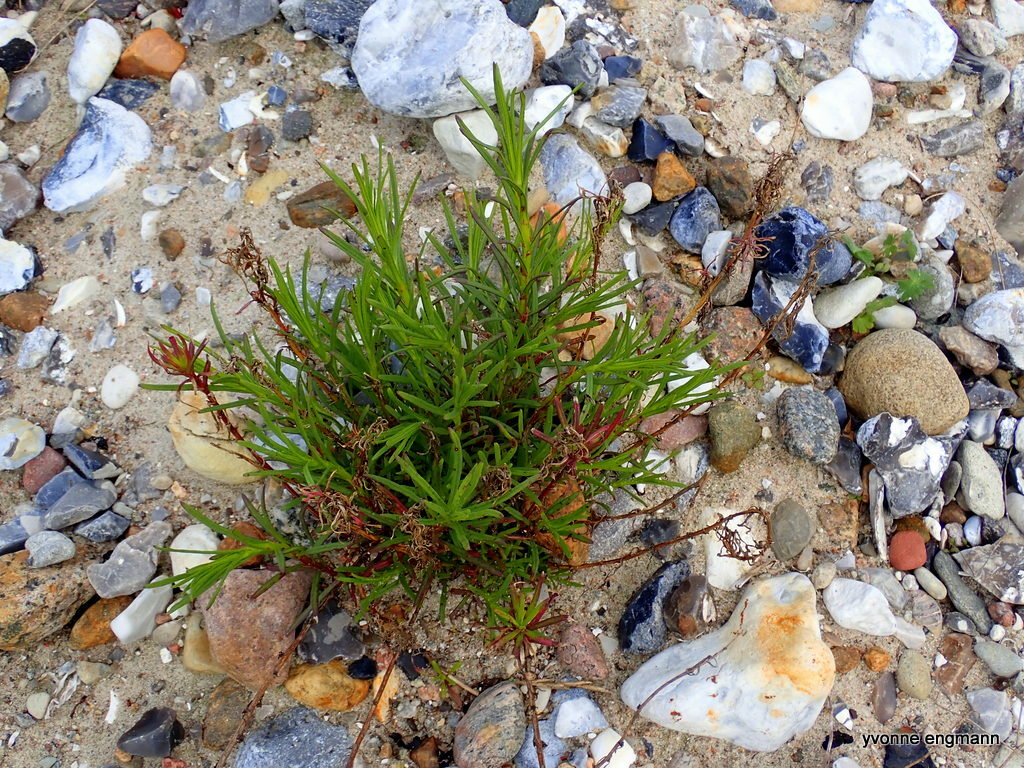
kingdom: Plantae
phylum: Tracheophyta
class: Magnoliopsida
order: Asterales
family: Asteraceae
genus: Senecio
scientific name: Senecio inaequidens
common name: Narrow-leaved ragwort
